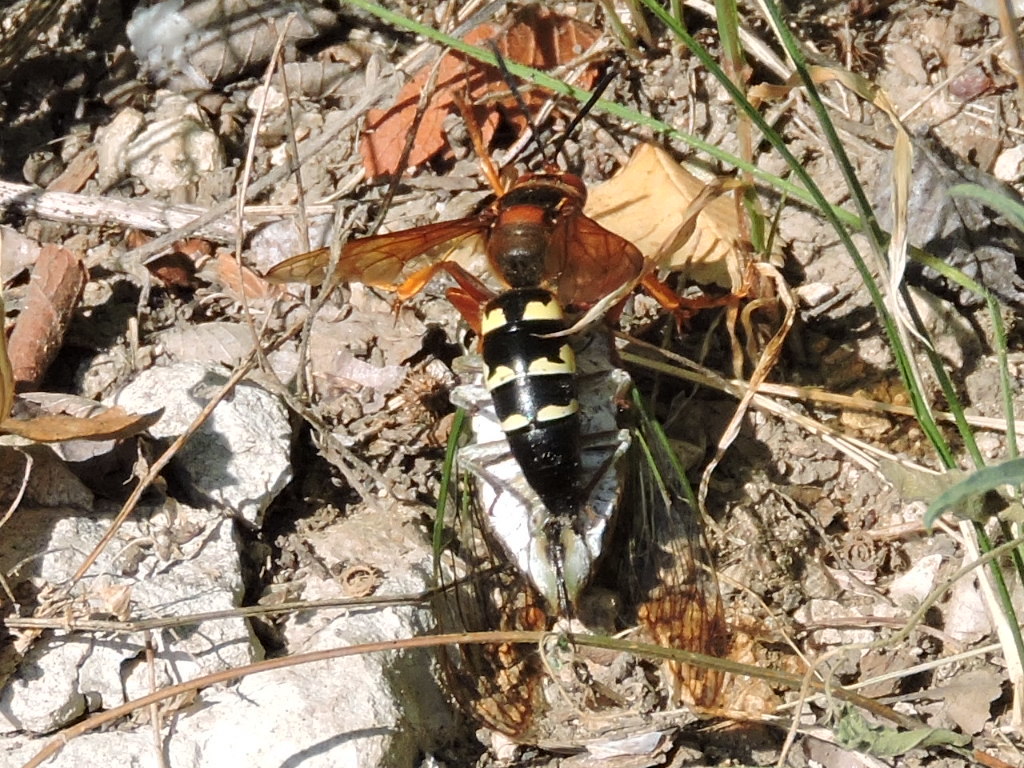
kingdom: Animalia
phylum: Arthropoda
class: Insecta
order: Hymenoptera
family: Crabronidae
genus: Sphecius
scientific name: Sphecius speciosus
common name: Cicada killer
